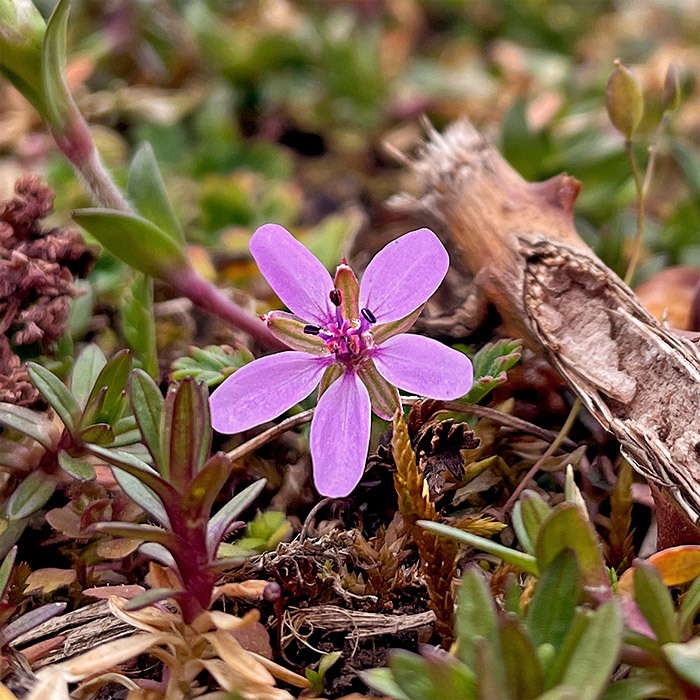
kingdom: Plantae
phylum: Tracheophyta
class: Magnoliopsida
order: Geraniales
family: Geraniaceae
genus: Erodium
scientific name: Erodium cicutarium
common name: Common stork's-bill
